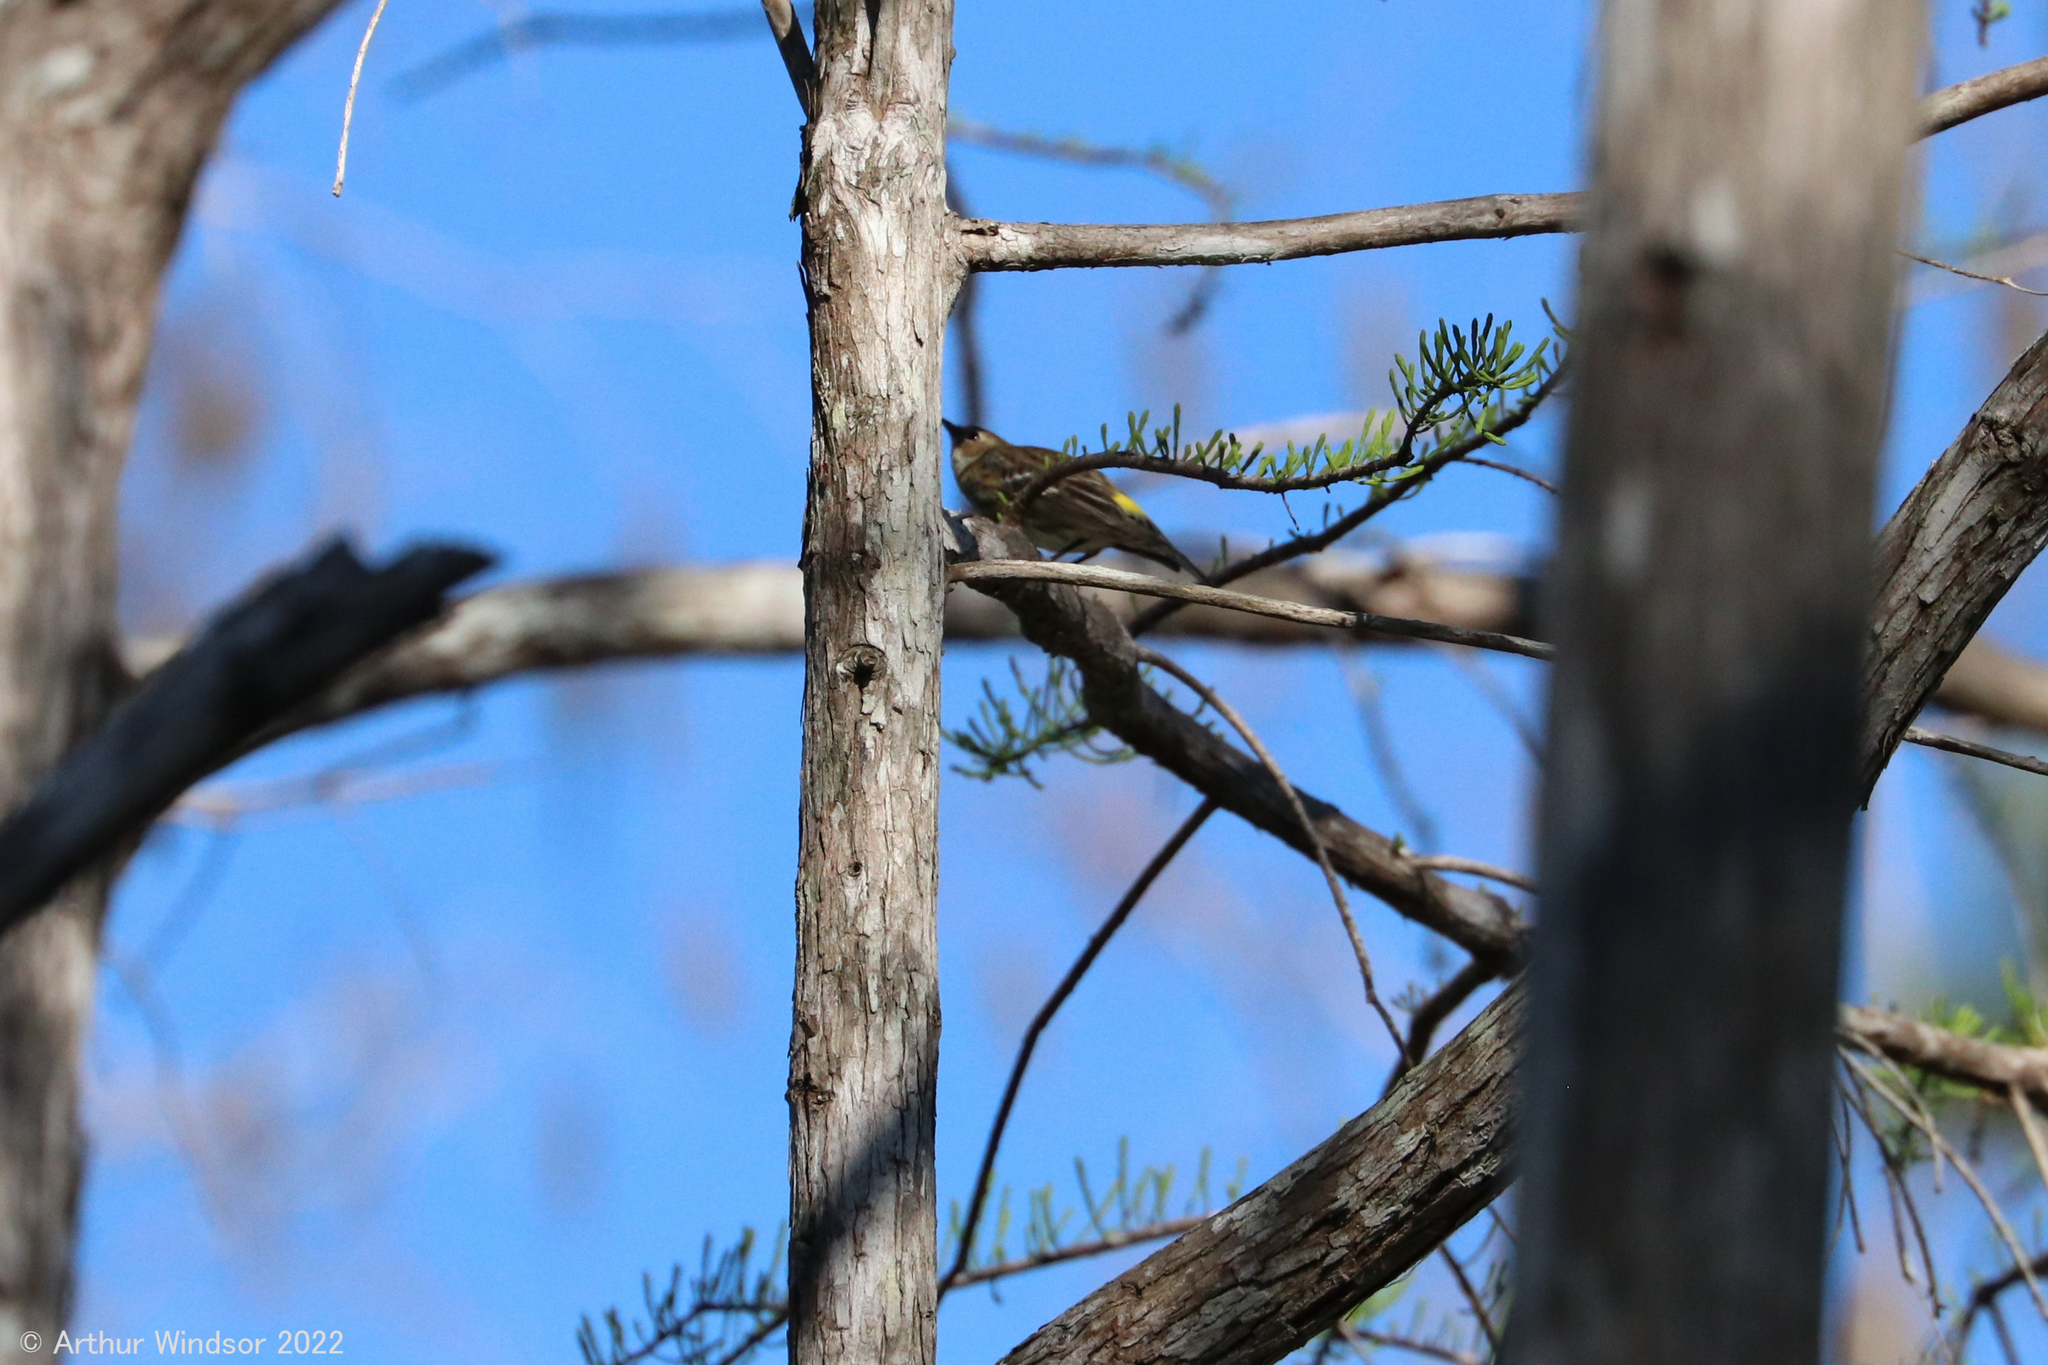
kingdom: Animalia
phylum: Chordata
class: Aves
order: Passeriformes
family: Parulidae
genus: Setophaga
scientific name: Setophaga coronata
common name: Myrtle warbler
